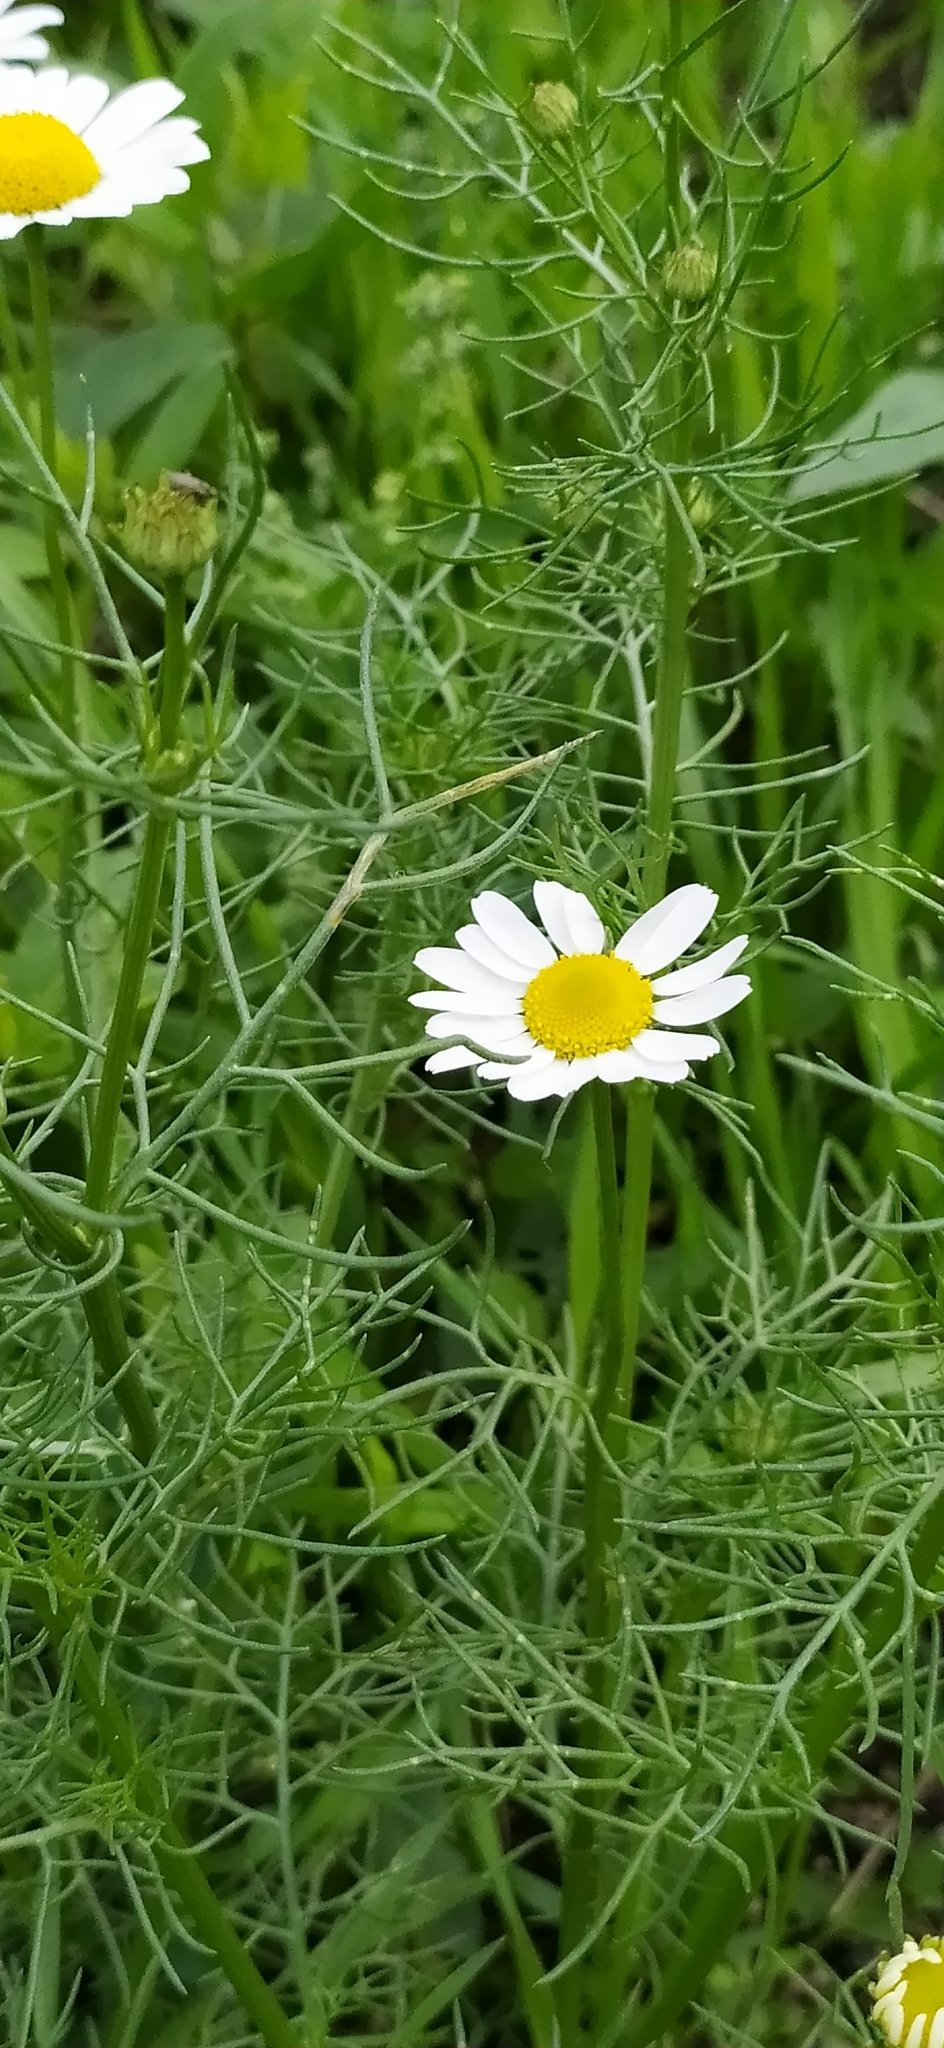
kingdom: Plantae
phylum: Tracheophyta
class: Magnoliopsida
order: Asterales
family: Asteraceae
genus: Tripleurospermum
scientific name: Tripleurospermum inodorum
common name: Scentless mayweed
